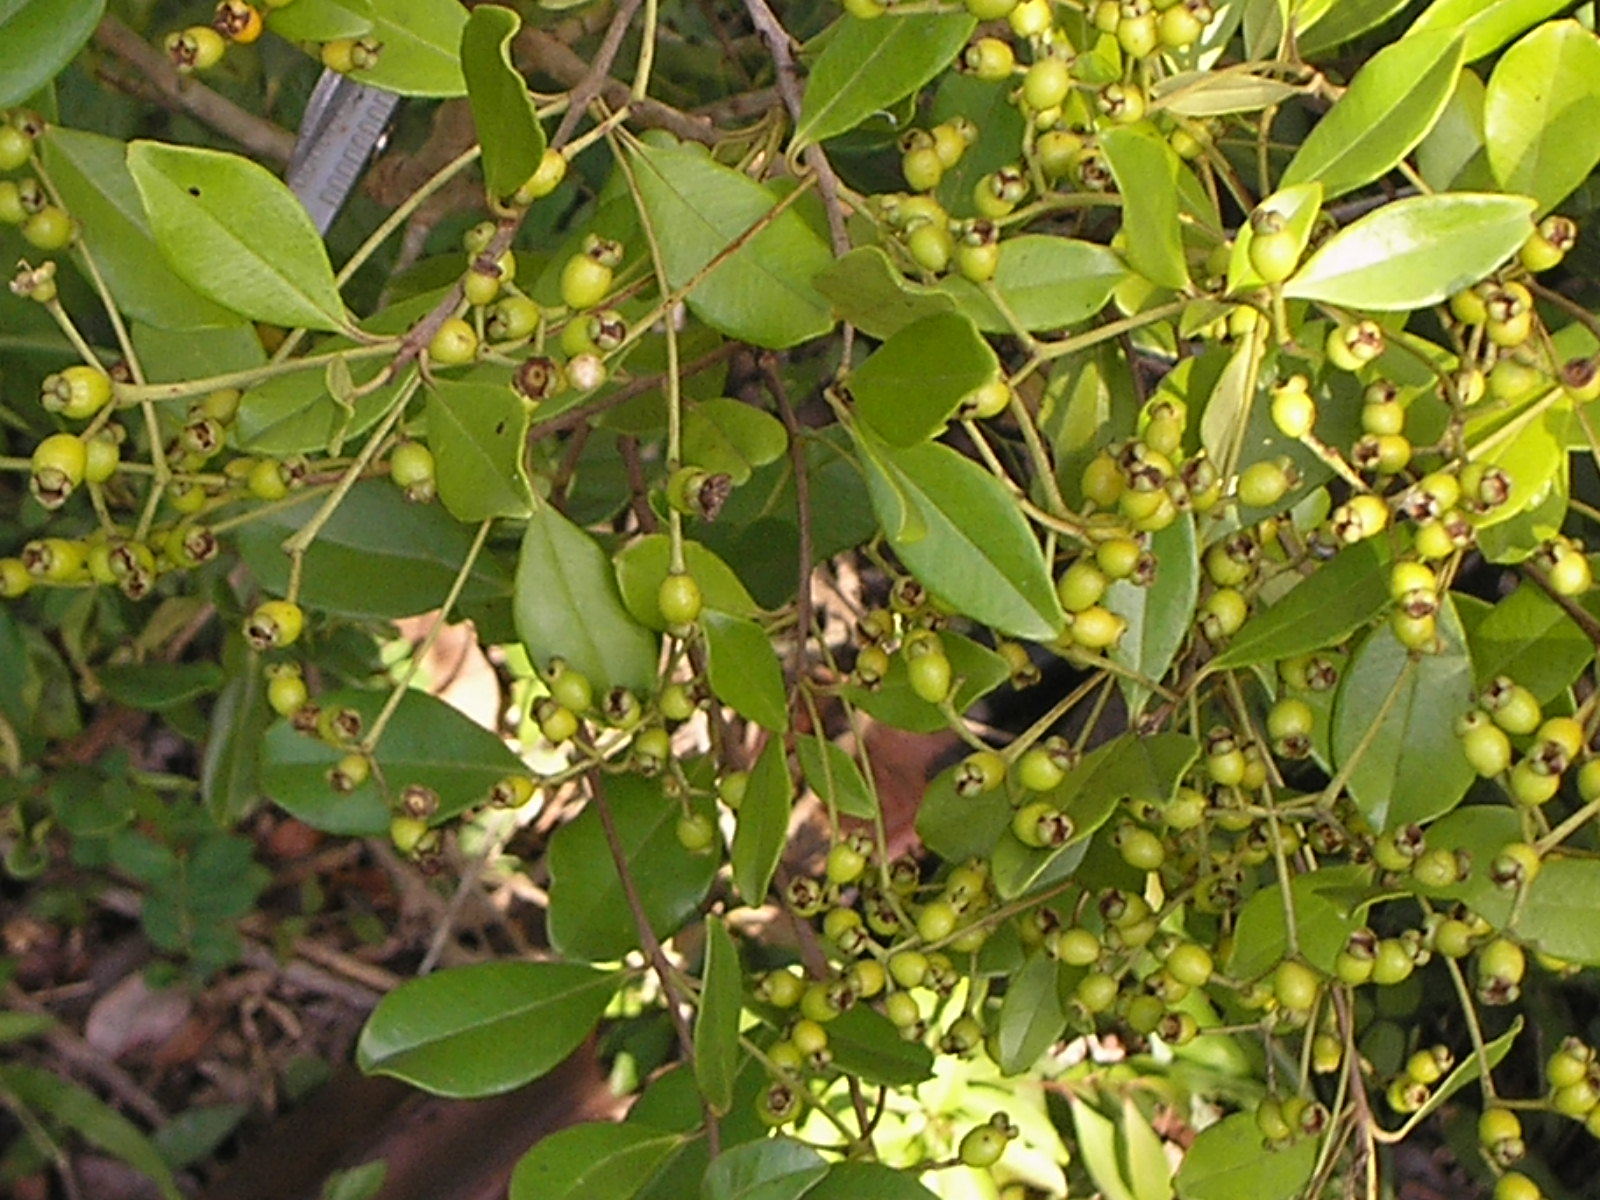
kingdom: Plantae
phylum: Tracheophyta
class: Magnoliopsida
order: Myrtales
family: Myrtaceae
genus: Myrcianthes
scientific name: Myrcianthes fragrans
